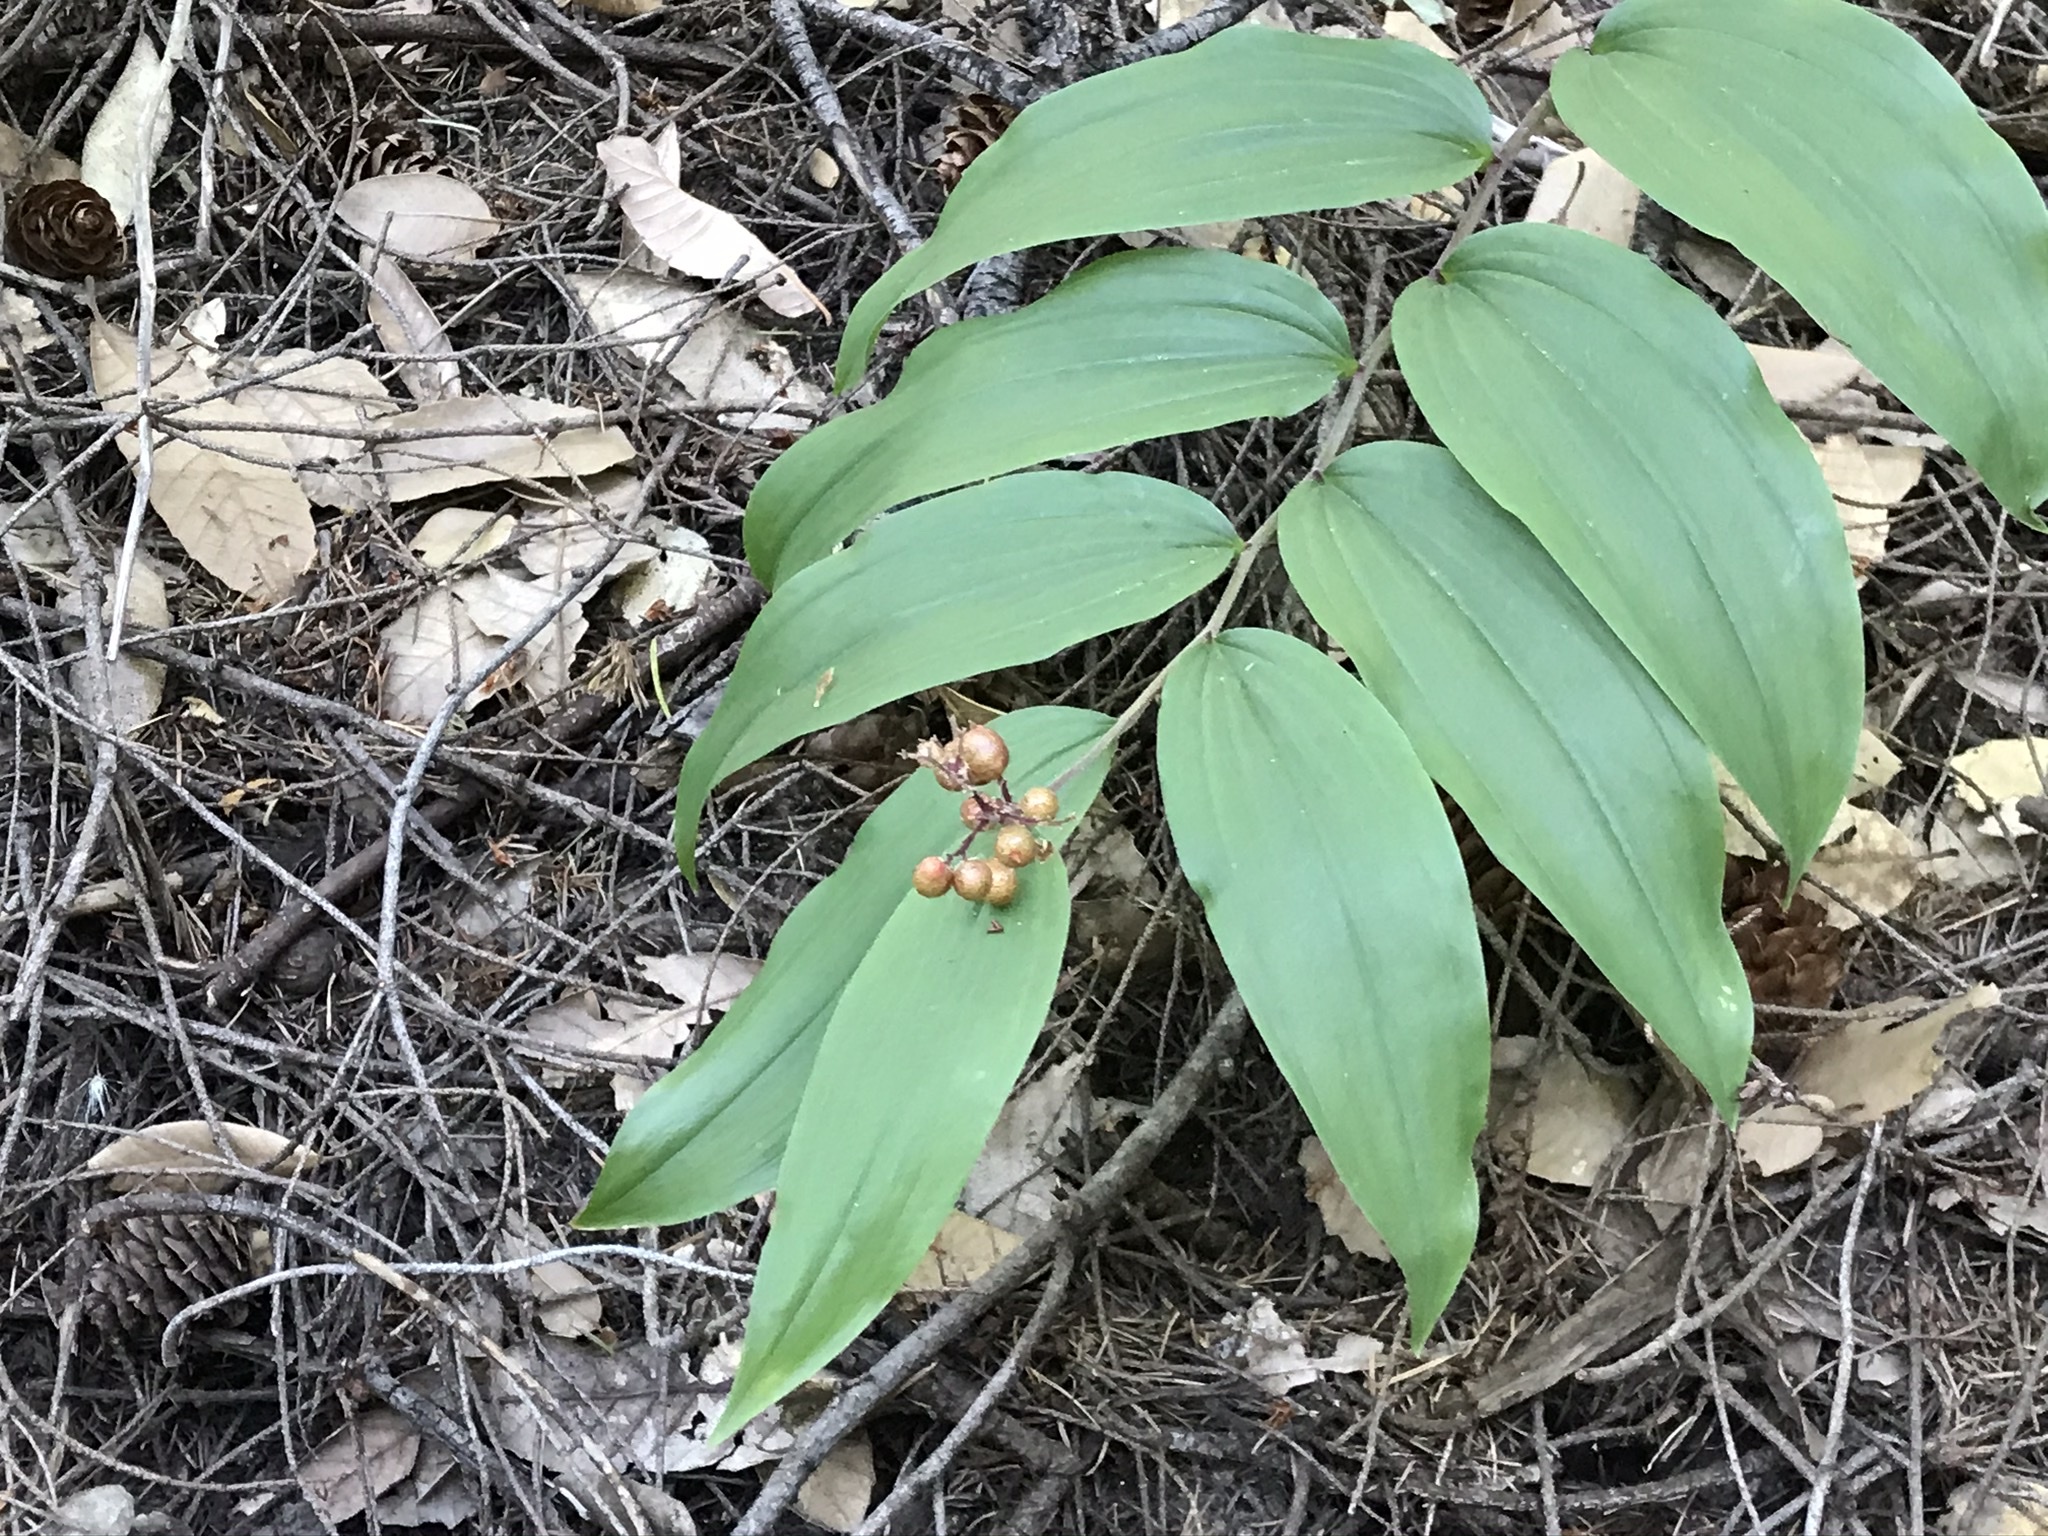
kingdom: Plantae
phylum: Tracheophyta
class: Liliopsida
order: Asparagales
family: Asparagaceae
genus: Maianthemum
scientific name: Maianthemum racemosum
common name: False spikenard
